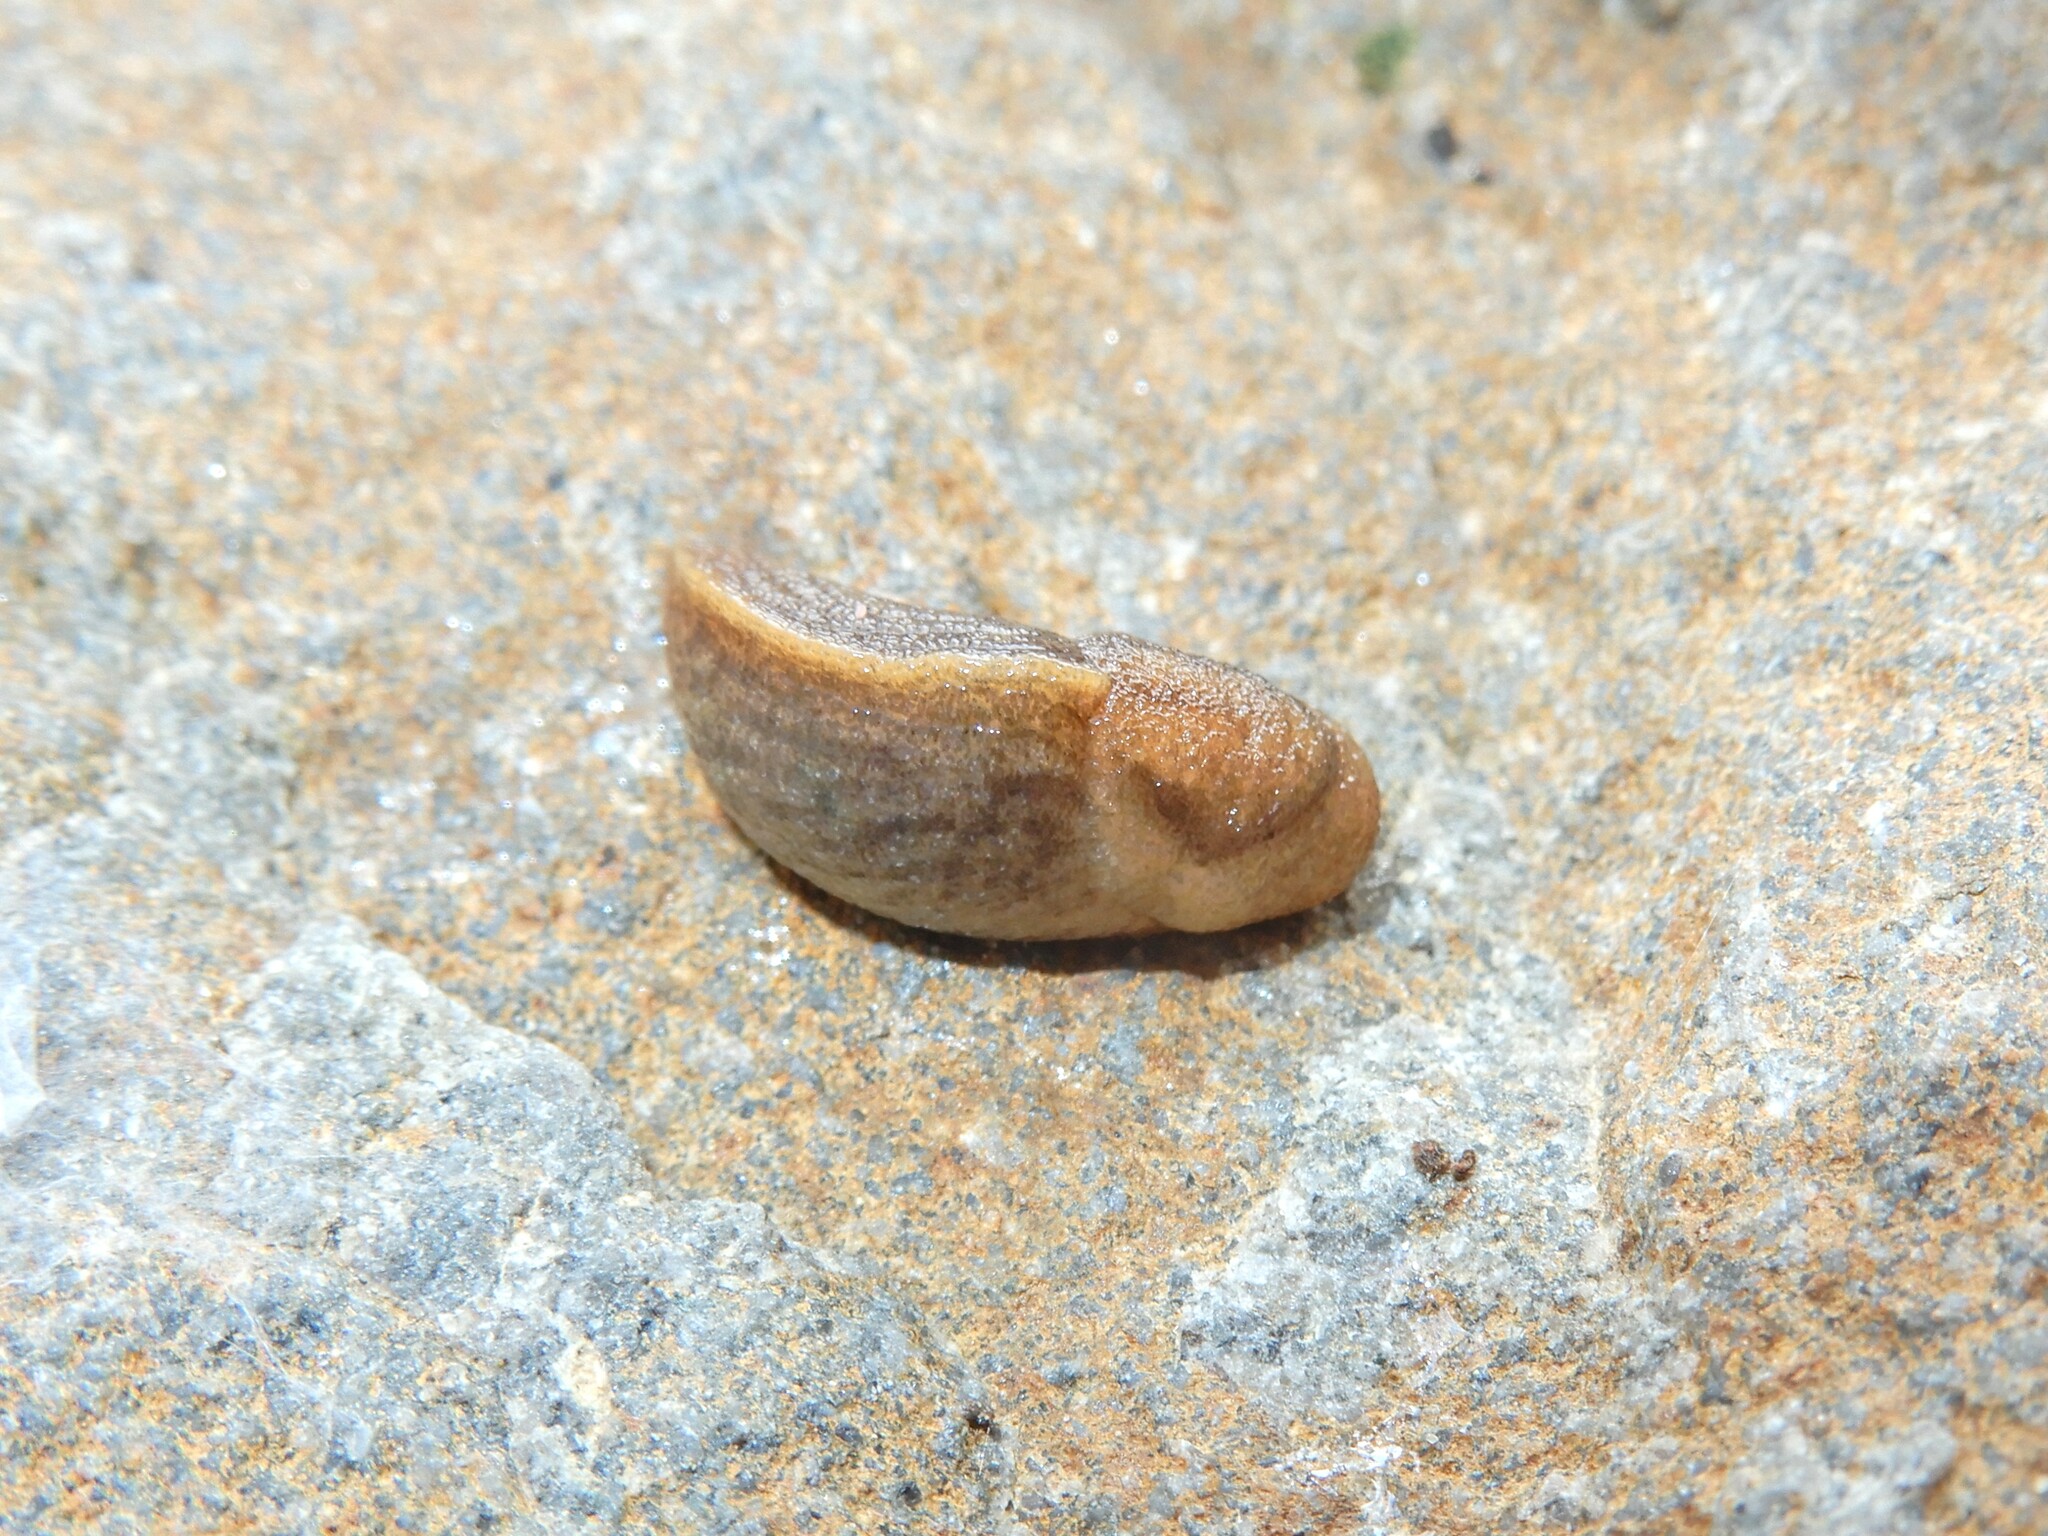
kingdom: Animalia
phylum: Mollusca
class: Gastropoda
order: Stylommatophora
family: Milacidae
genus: Milax
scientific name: Milax gagates
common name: Greenhouse slug
